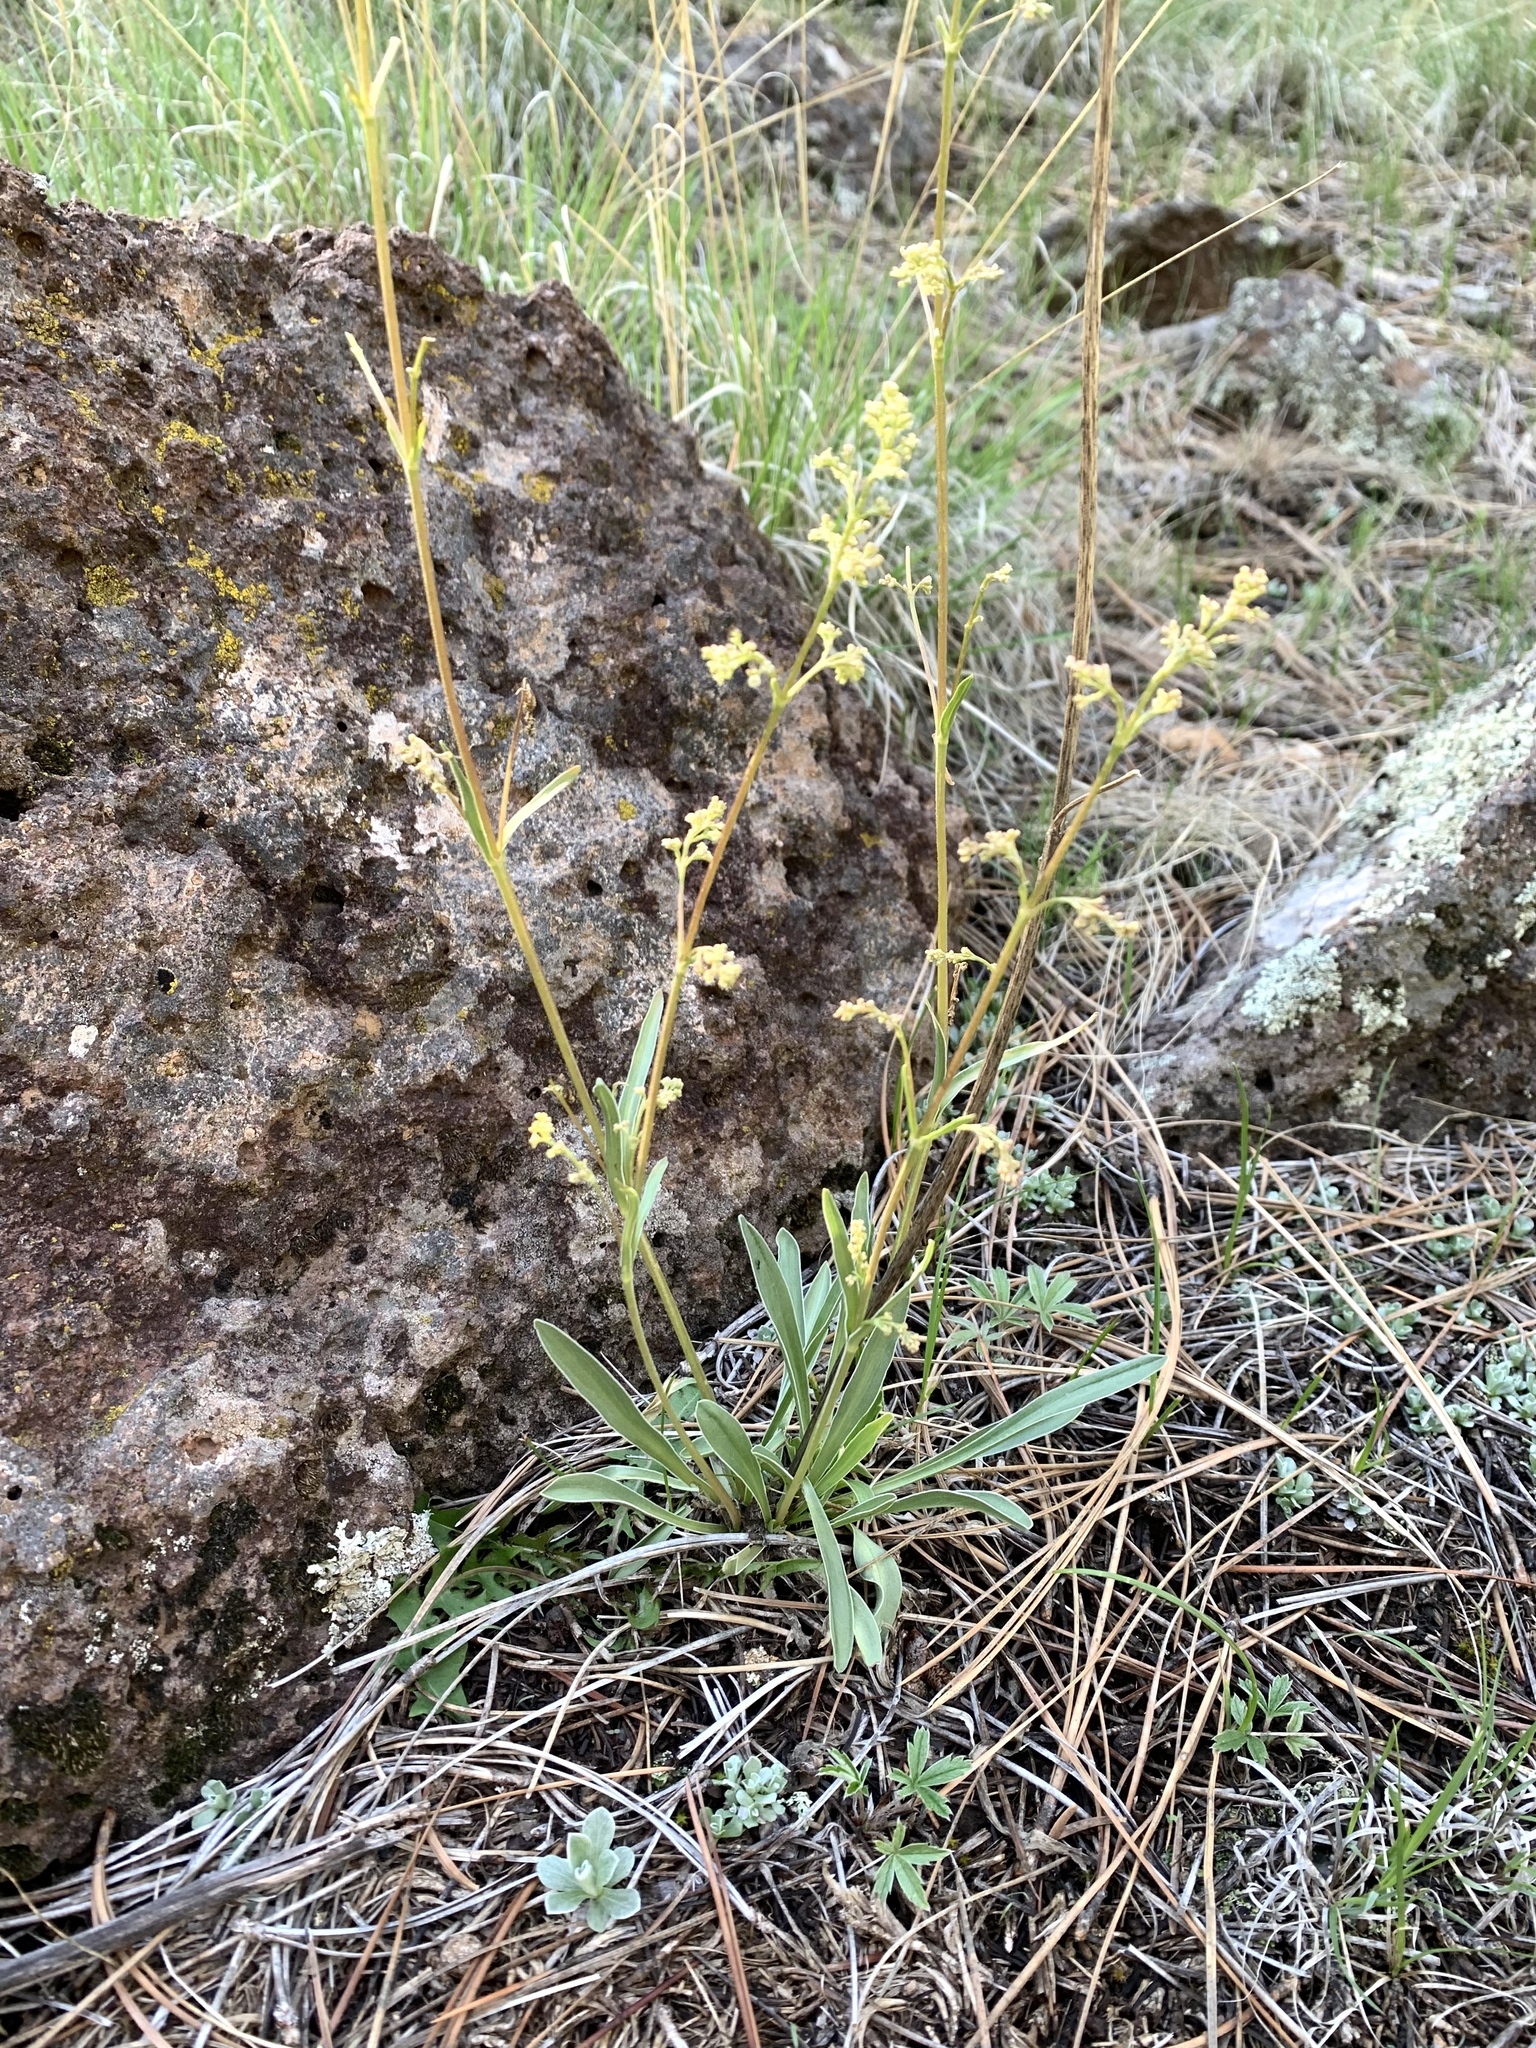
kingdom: Plantae
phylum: Tracheophyta
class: Magnoliopsida
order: Dipsacales
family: Caprifoliaceae
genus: Valeriana
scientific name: Valeriana edulis
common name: Taproot valerian
